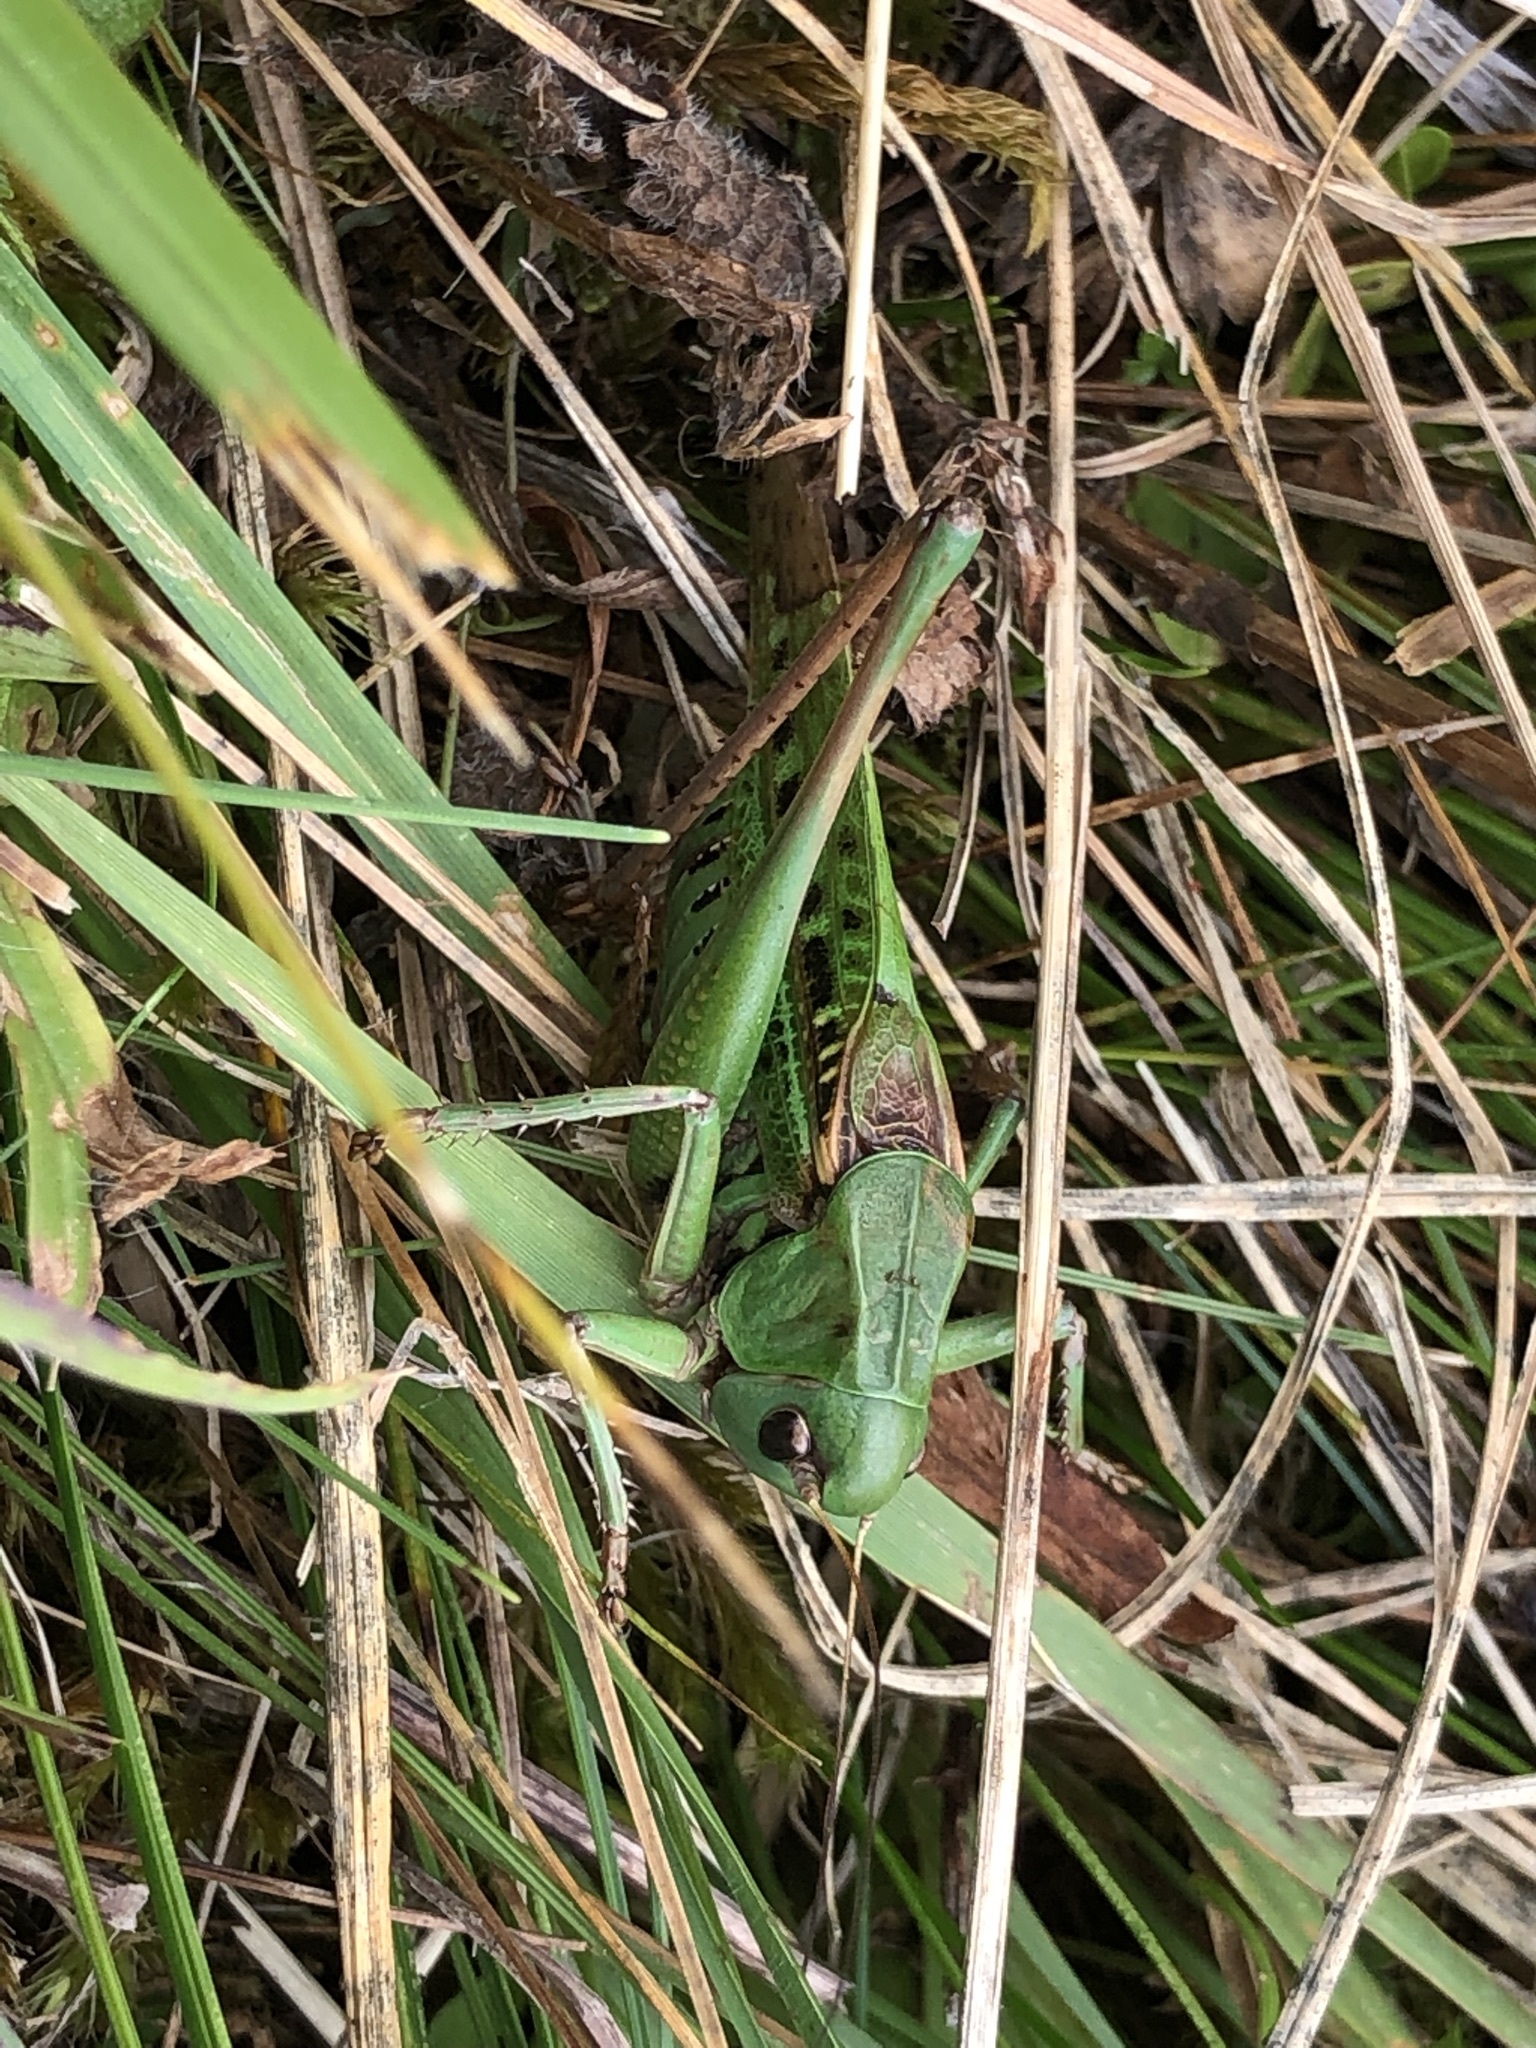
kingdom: Animalia
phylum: Arthropoda
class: Insecta
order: Orthoptera
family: Tettigoniidae
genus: Decticus
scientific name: Decticus verrucivorus
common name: Wart-biter
